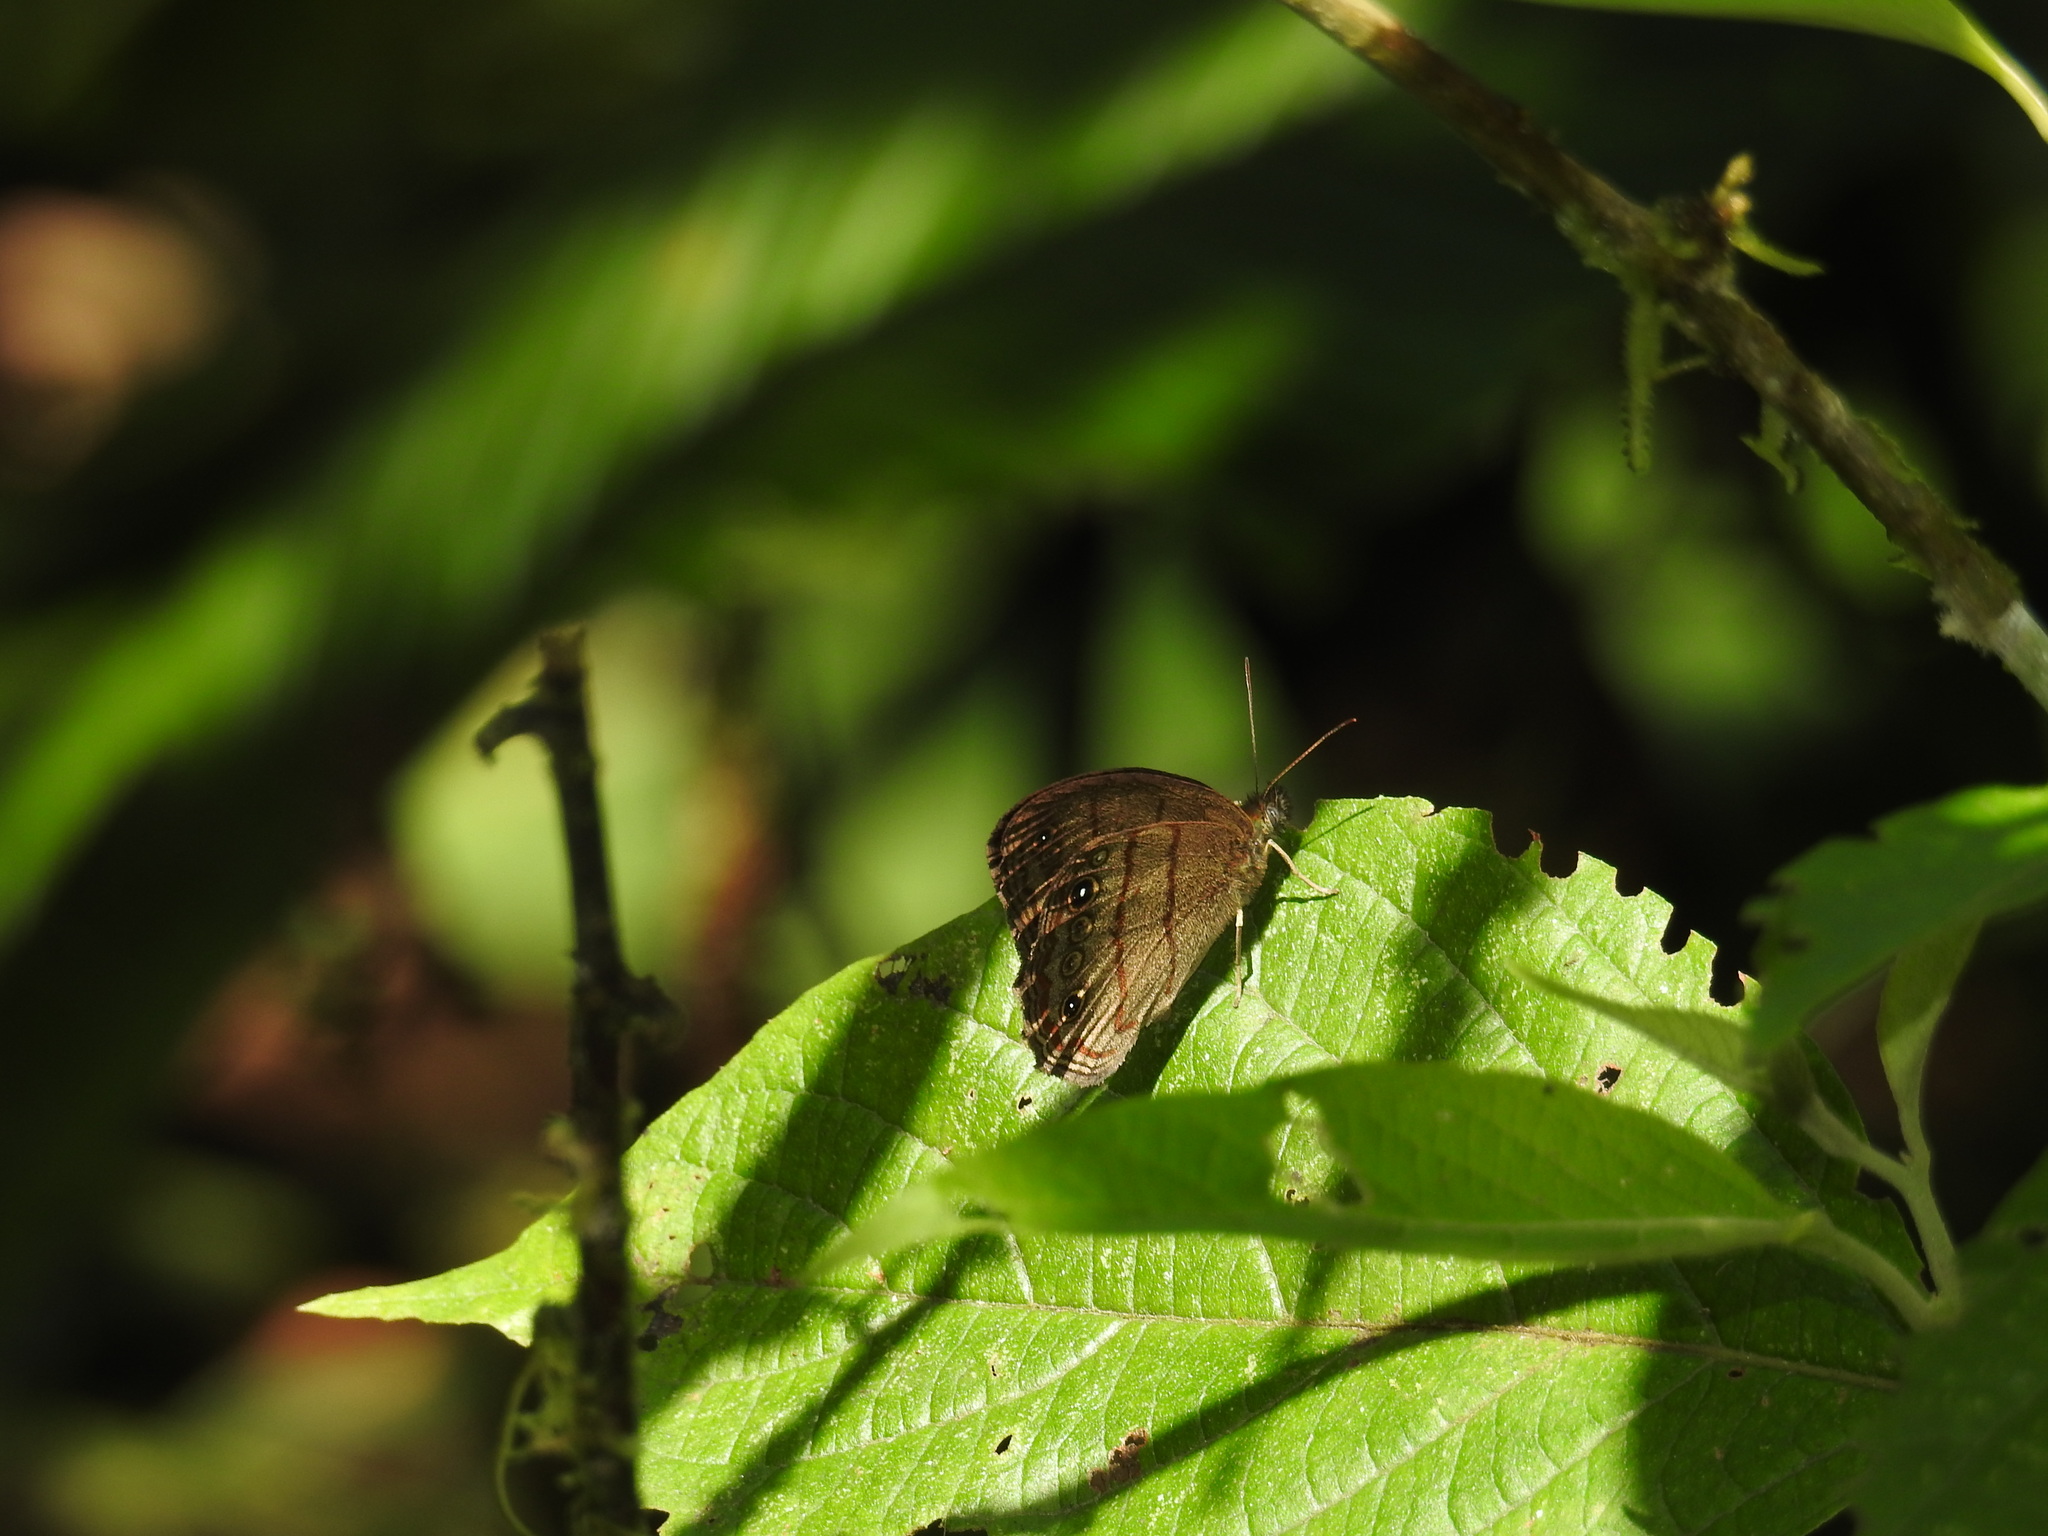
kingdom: Animalia
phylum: Arthropoda
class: Insecta
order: Lepidoptera
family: Nymphalidae
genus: Malaveria
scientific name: Malaveria
